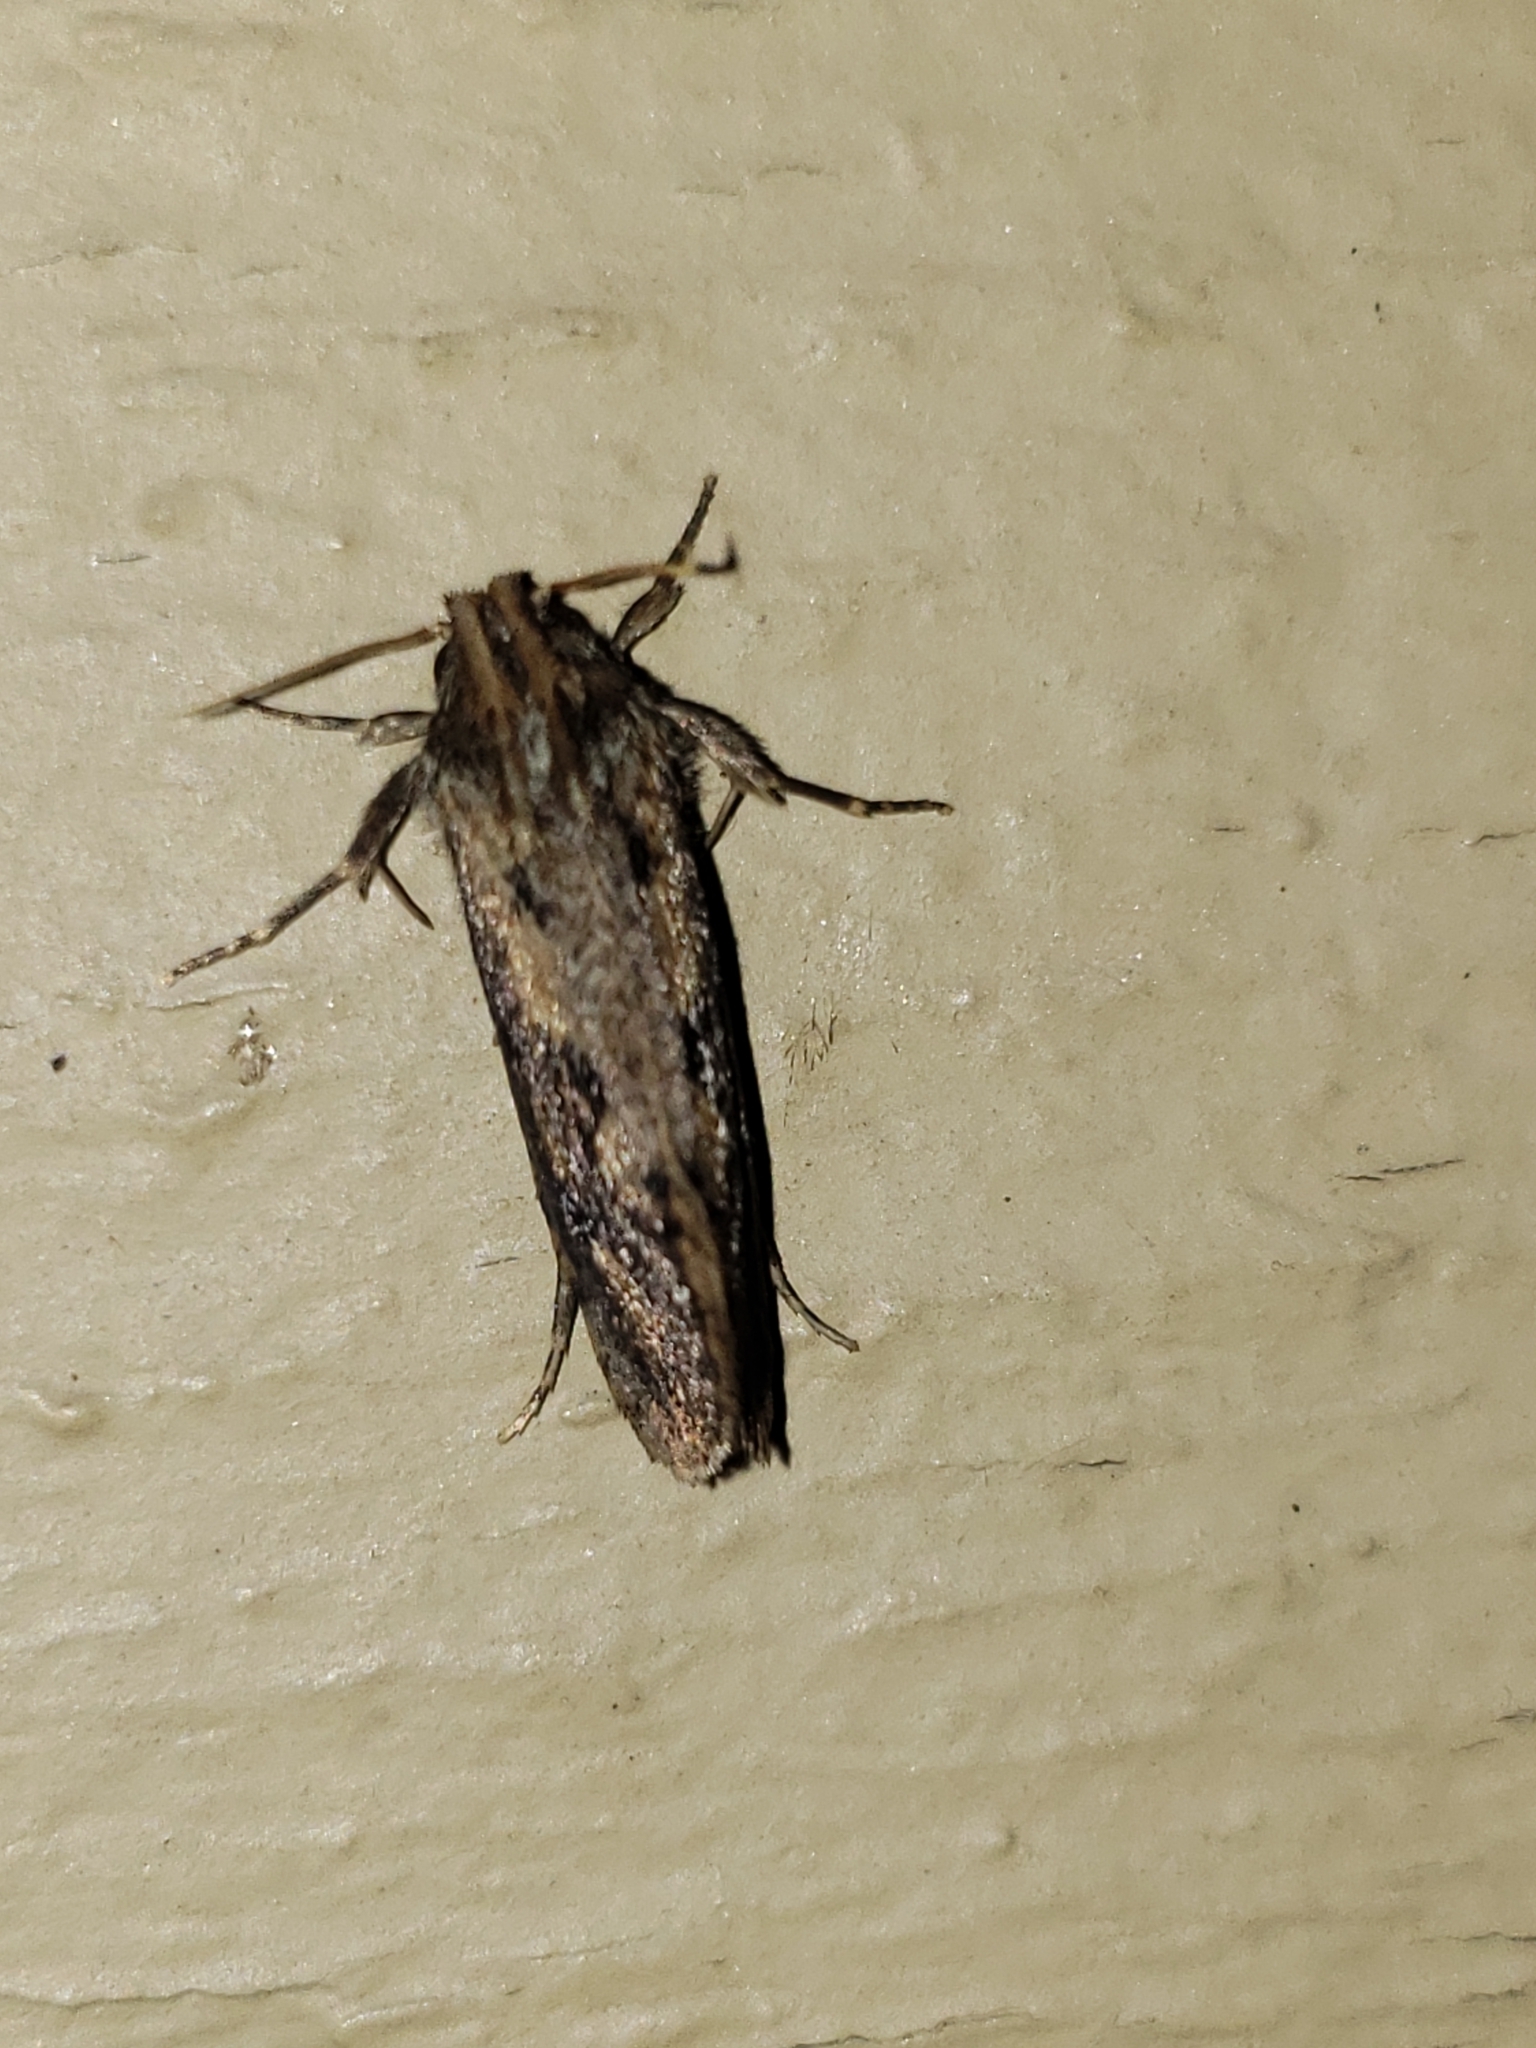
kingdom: Animalia
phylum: Arthropoda
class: Insecta
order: Lepidoptera
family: Tineidae
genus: Acrolophus
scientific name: Acrolophus popeanella
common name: Clemens' grass tubeworm moth
